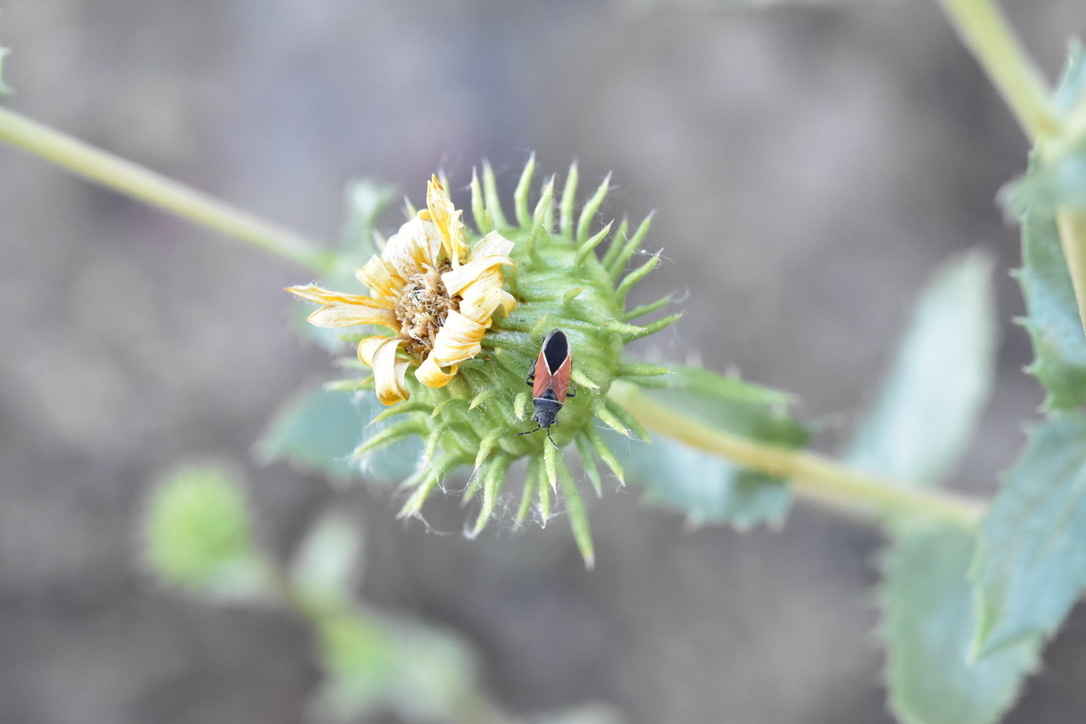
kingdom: Animalia
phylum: Arthropoda
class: Insecta
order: Hemiptera
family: Lygaeidae
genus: Melanopleurus
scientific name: Melanopleurus pyrrhopterus
